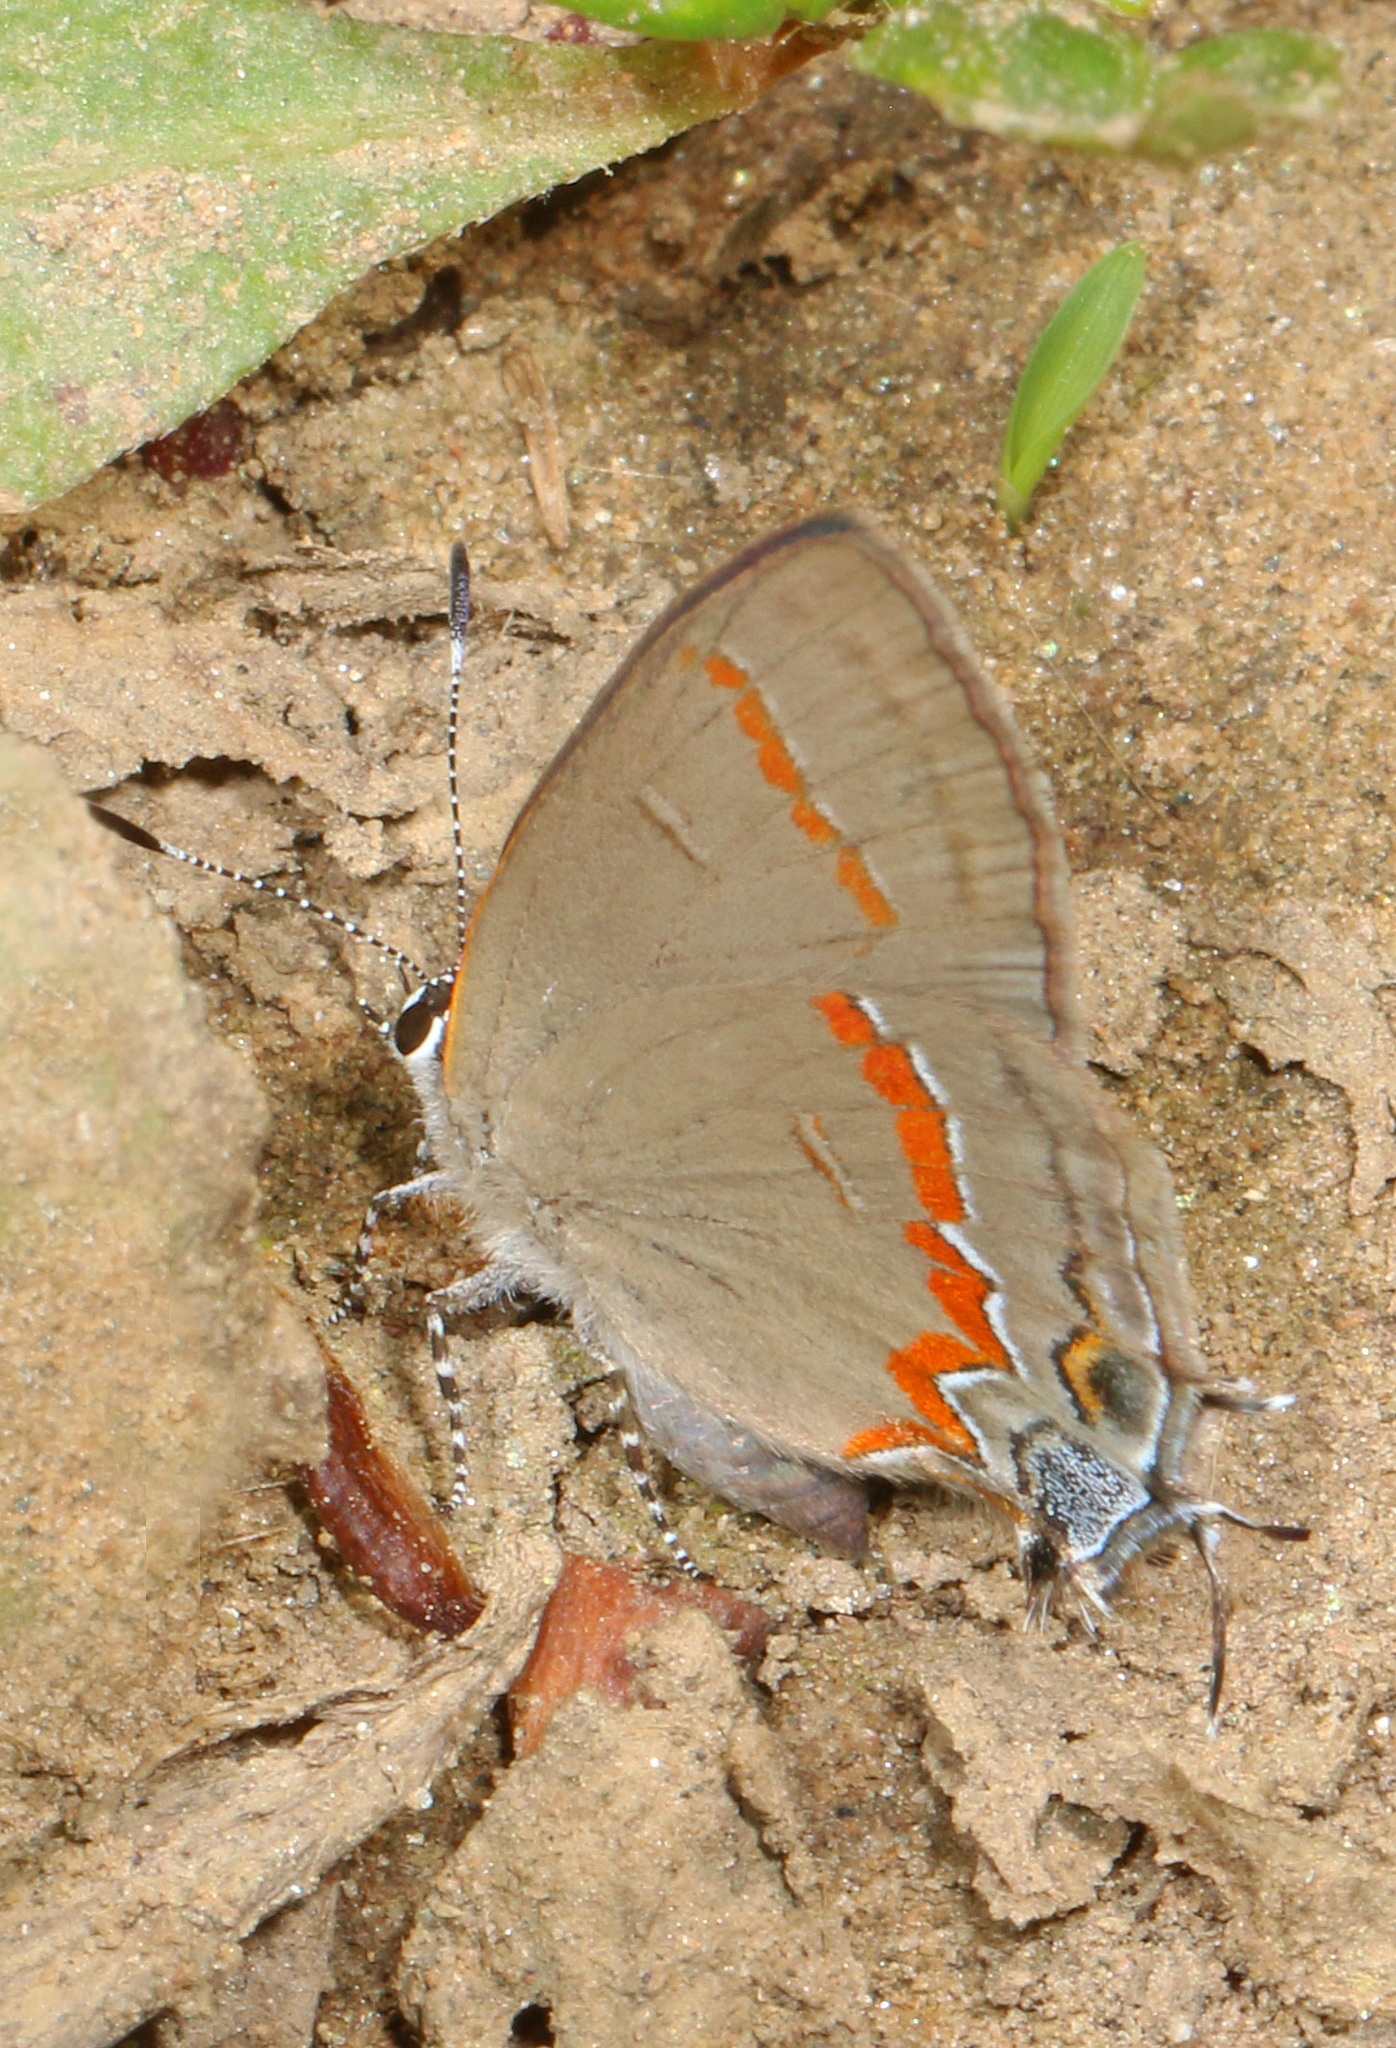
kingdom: Animalia
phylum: Arthropoda
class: Insecta
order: Lepidoptera
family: Lycaenidae
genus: Calycopis
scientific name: Calycopis cecrops
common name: Red-banded hairstreak
